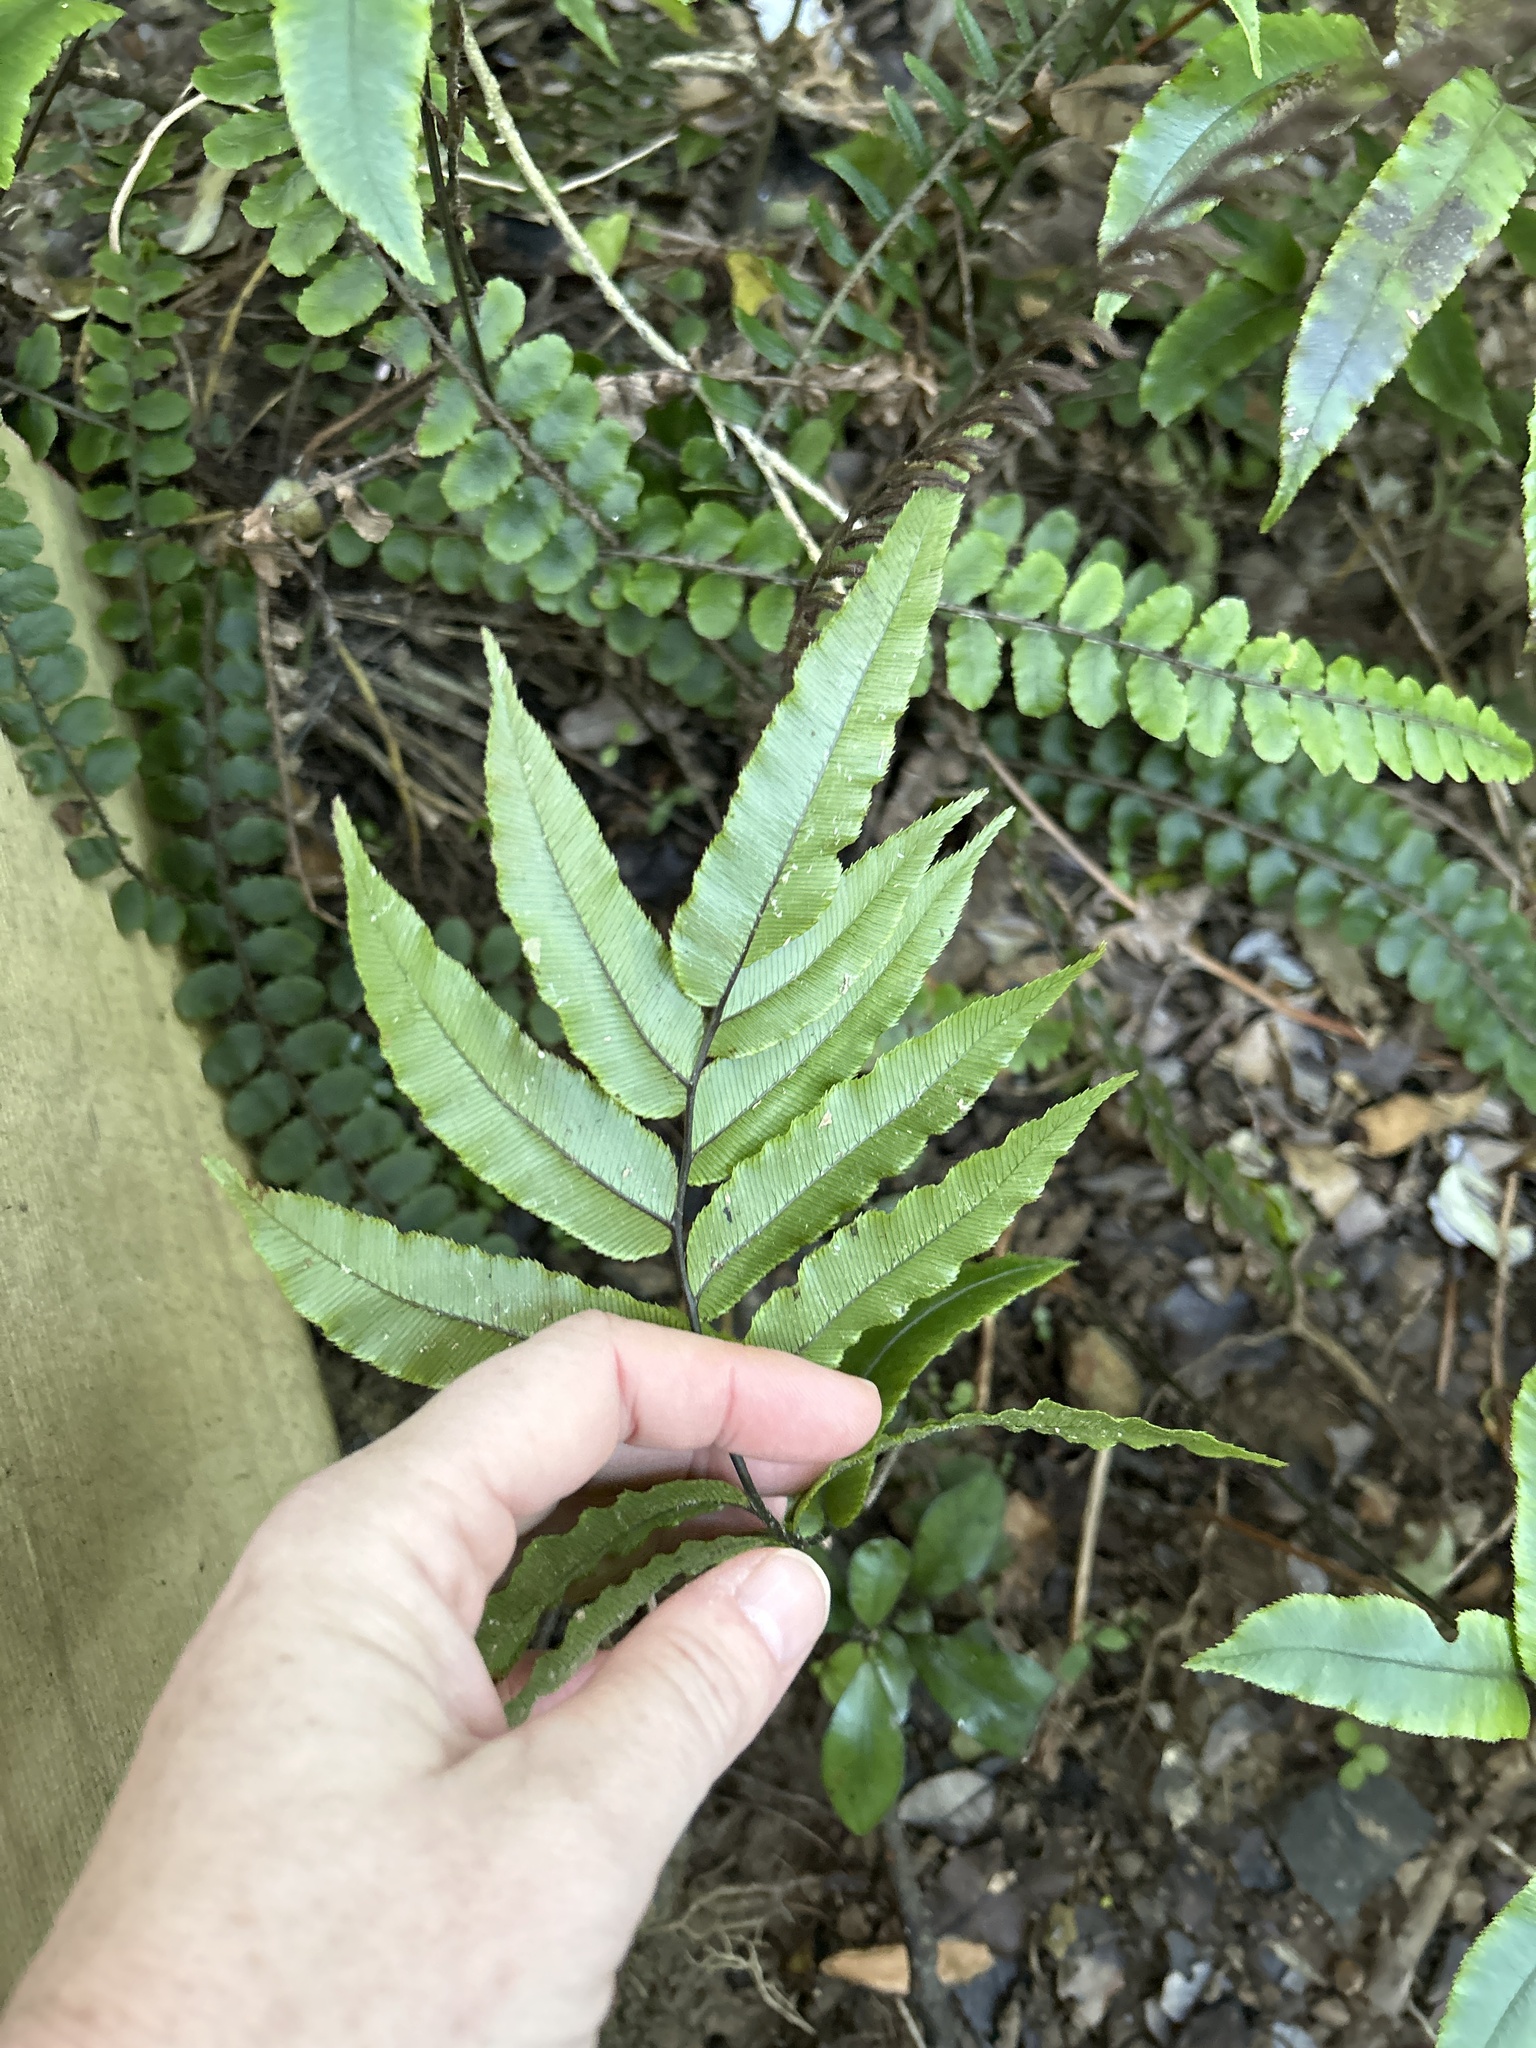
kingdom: Plantae
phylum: Tracheophyta
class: Polypodiopsida
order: Polypodiales
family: Blechnaceae
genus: Parablechnum
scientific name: Parablechnum procerum
